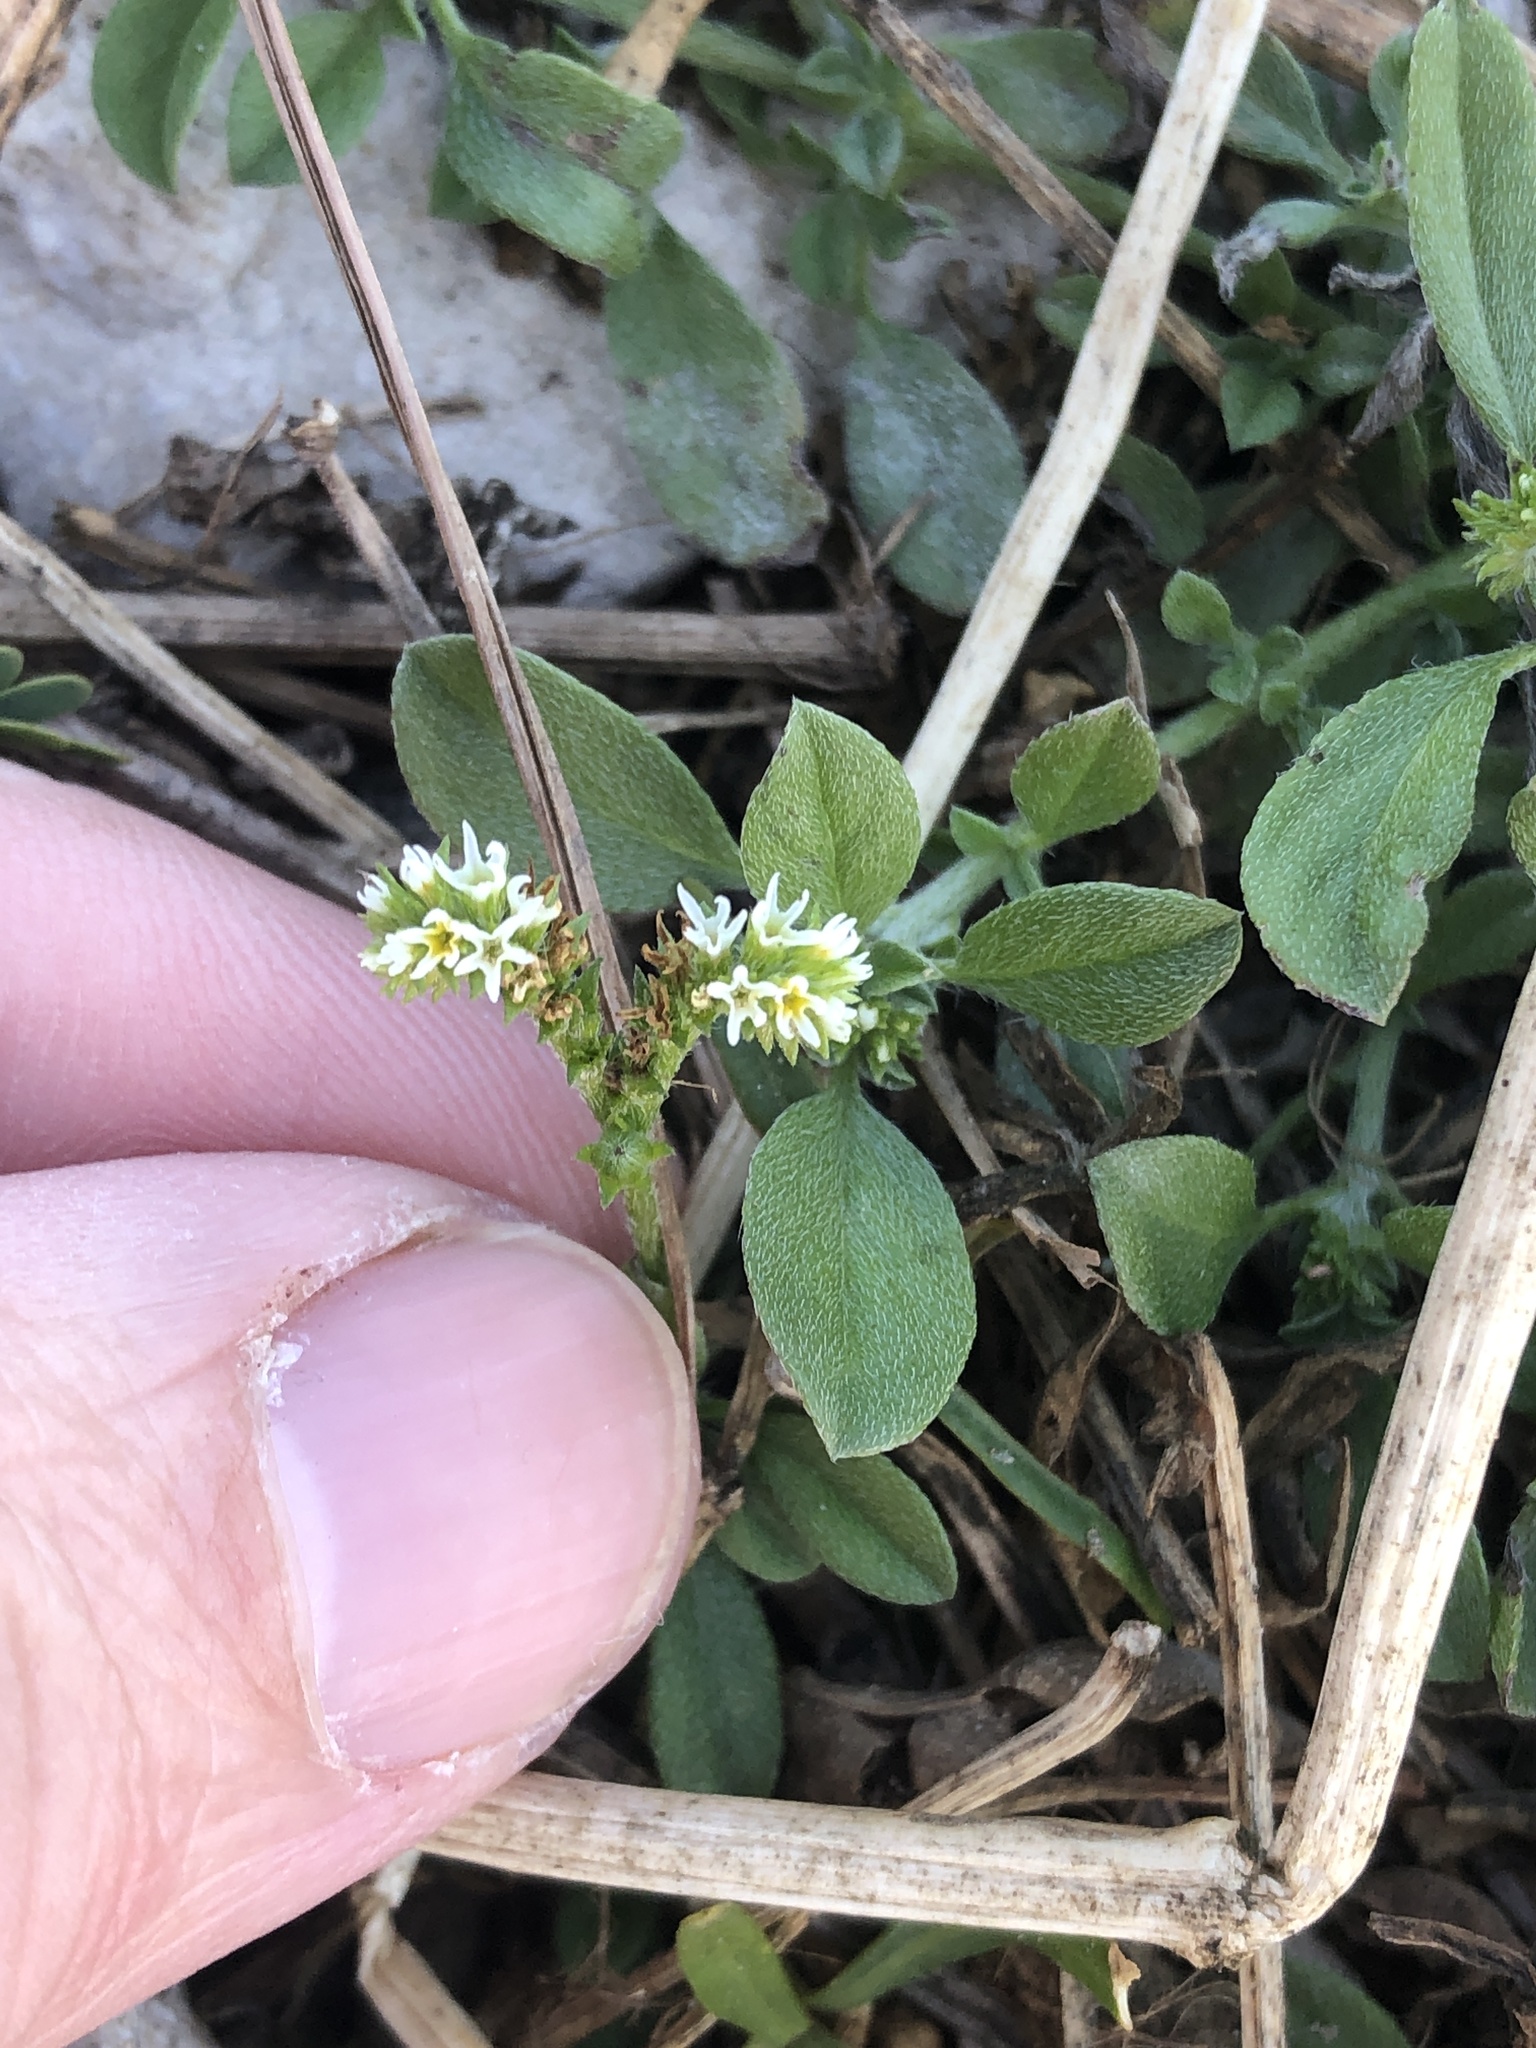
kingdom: Plantae
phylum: Tracheophyta
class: Magnoliopsida
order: Boraginales
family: Heliotropiaceae
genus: Euploca
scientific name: Euploca procumbens
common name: Fourspike heliotrope
